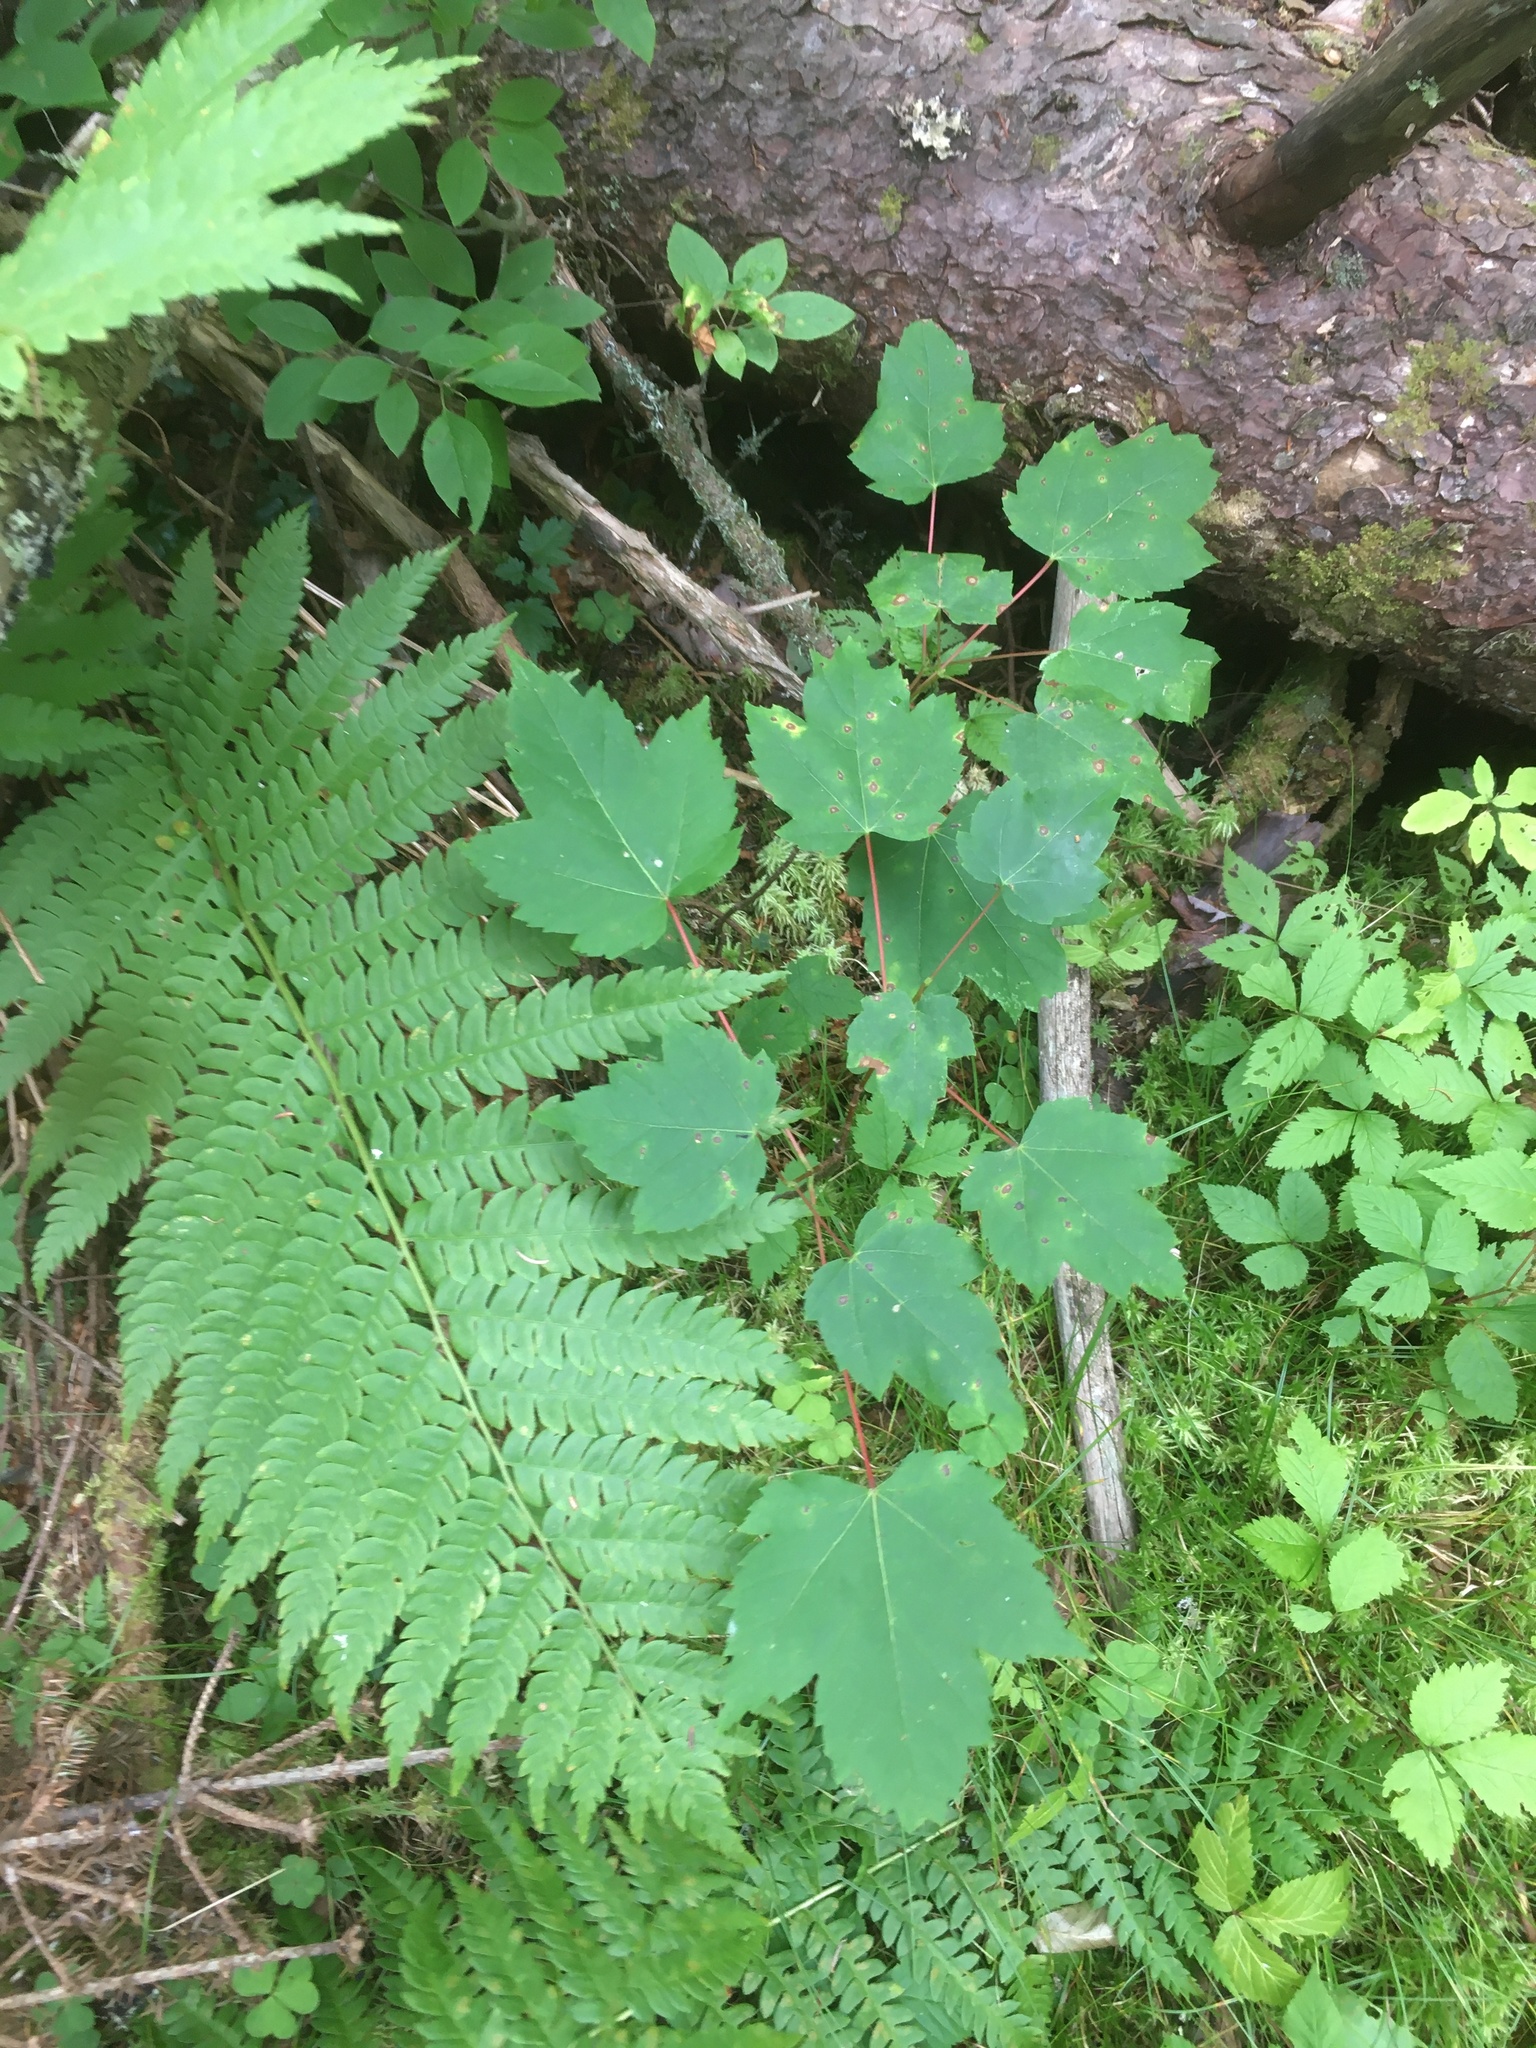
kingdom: Plantae
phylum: Tracheophyta
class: Magnoliopsida
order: Sapindales
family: Sapindaceae
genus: Acer
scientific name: Acer rubrum
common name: Red maple
